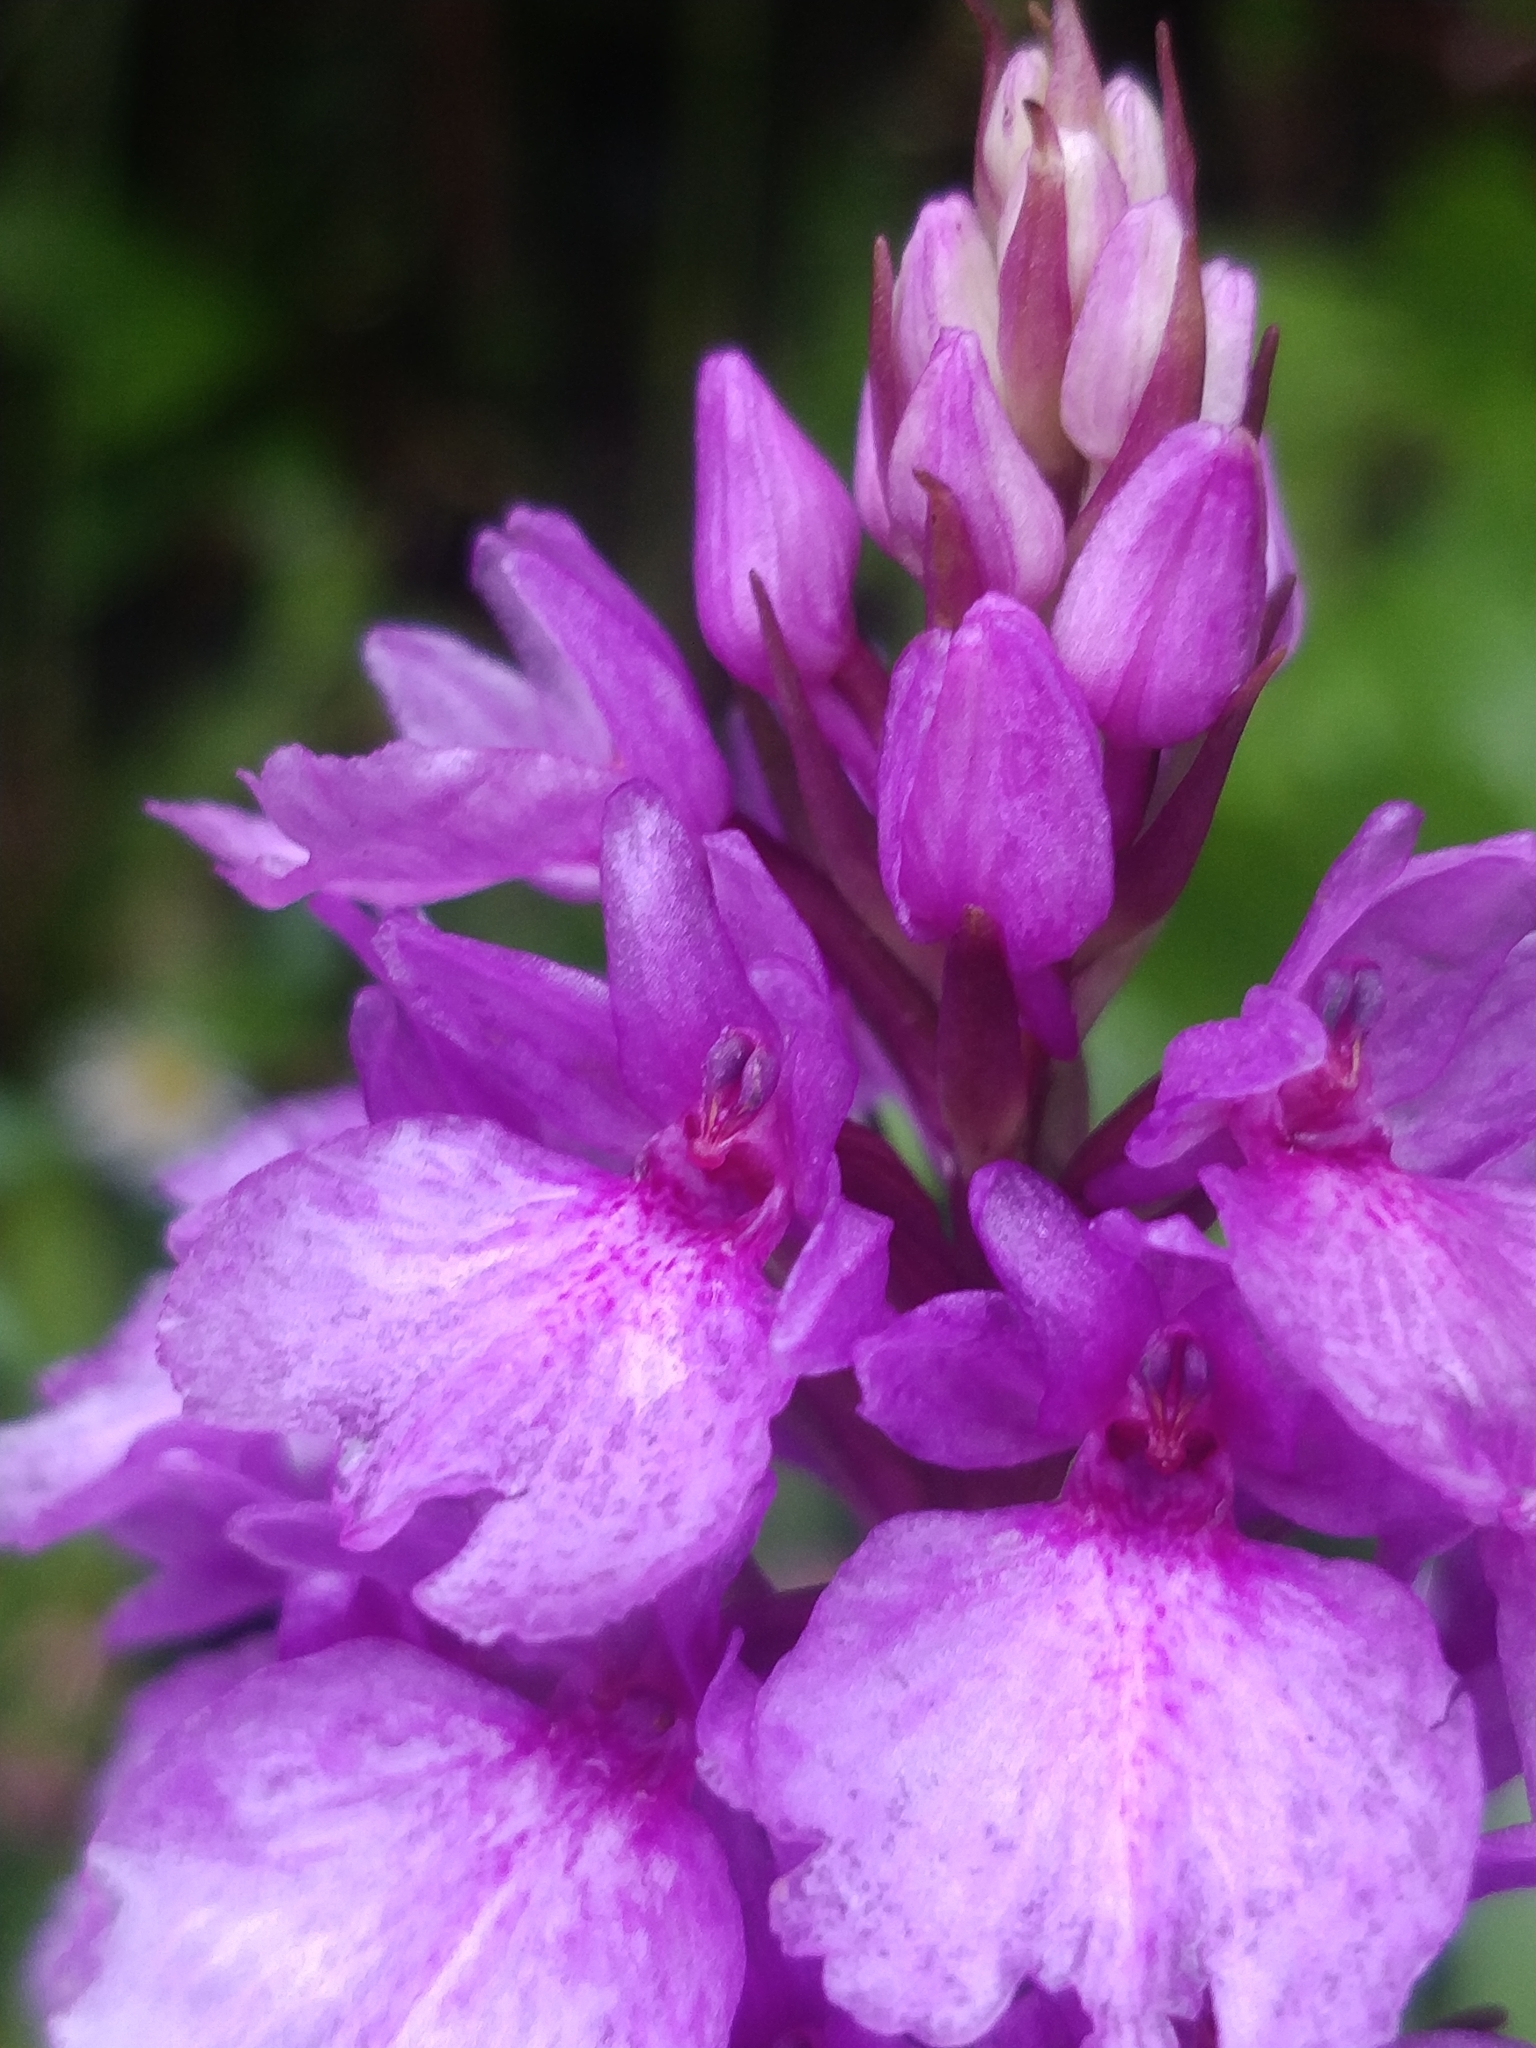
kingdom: Plantae
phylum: Tracheophyta
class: Liliopsida
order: Asparagales
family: Orchidaceae
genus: Dactylorhiza
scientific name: Dactylorhiza foliosa
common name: Richly-leaved dactylorhiza
